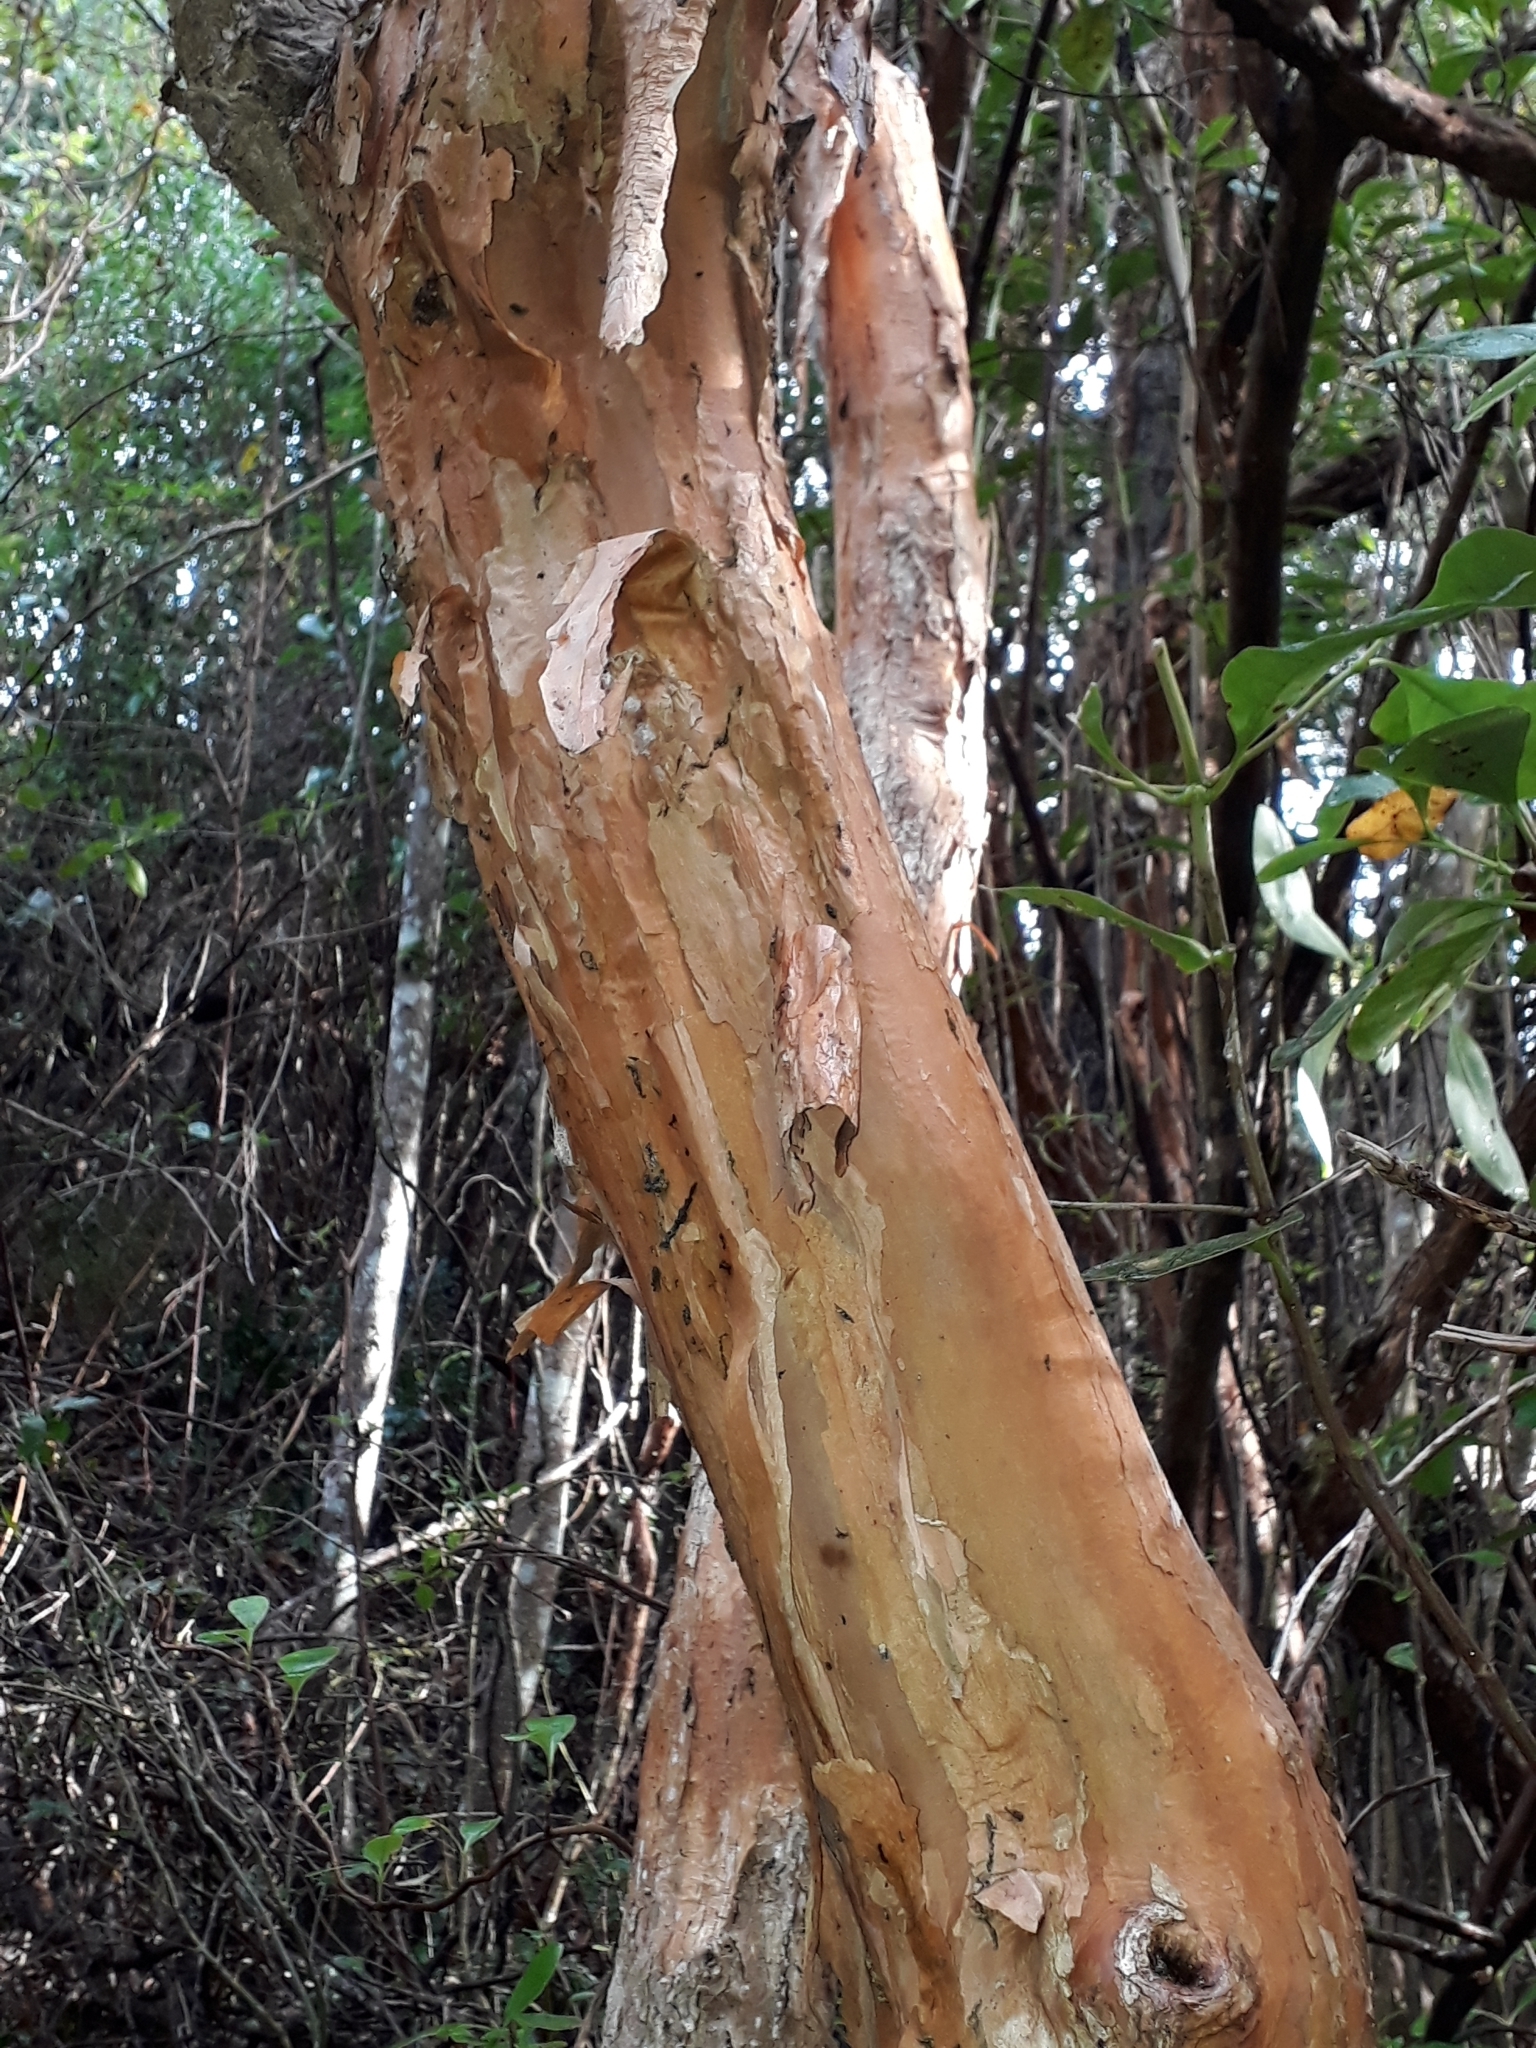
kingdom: Plantae
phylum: Tracheophyta
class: Magnoliopsida
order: Myrtales
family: Onagraceae
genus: Fuchsia
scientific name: Fuchsia excorticata
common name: Tree fuchsia
